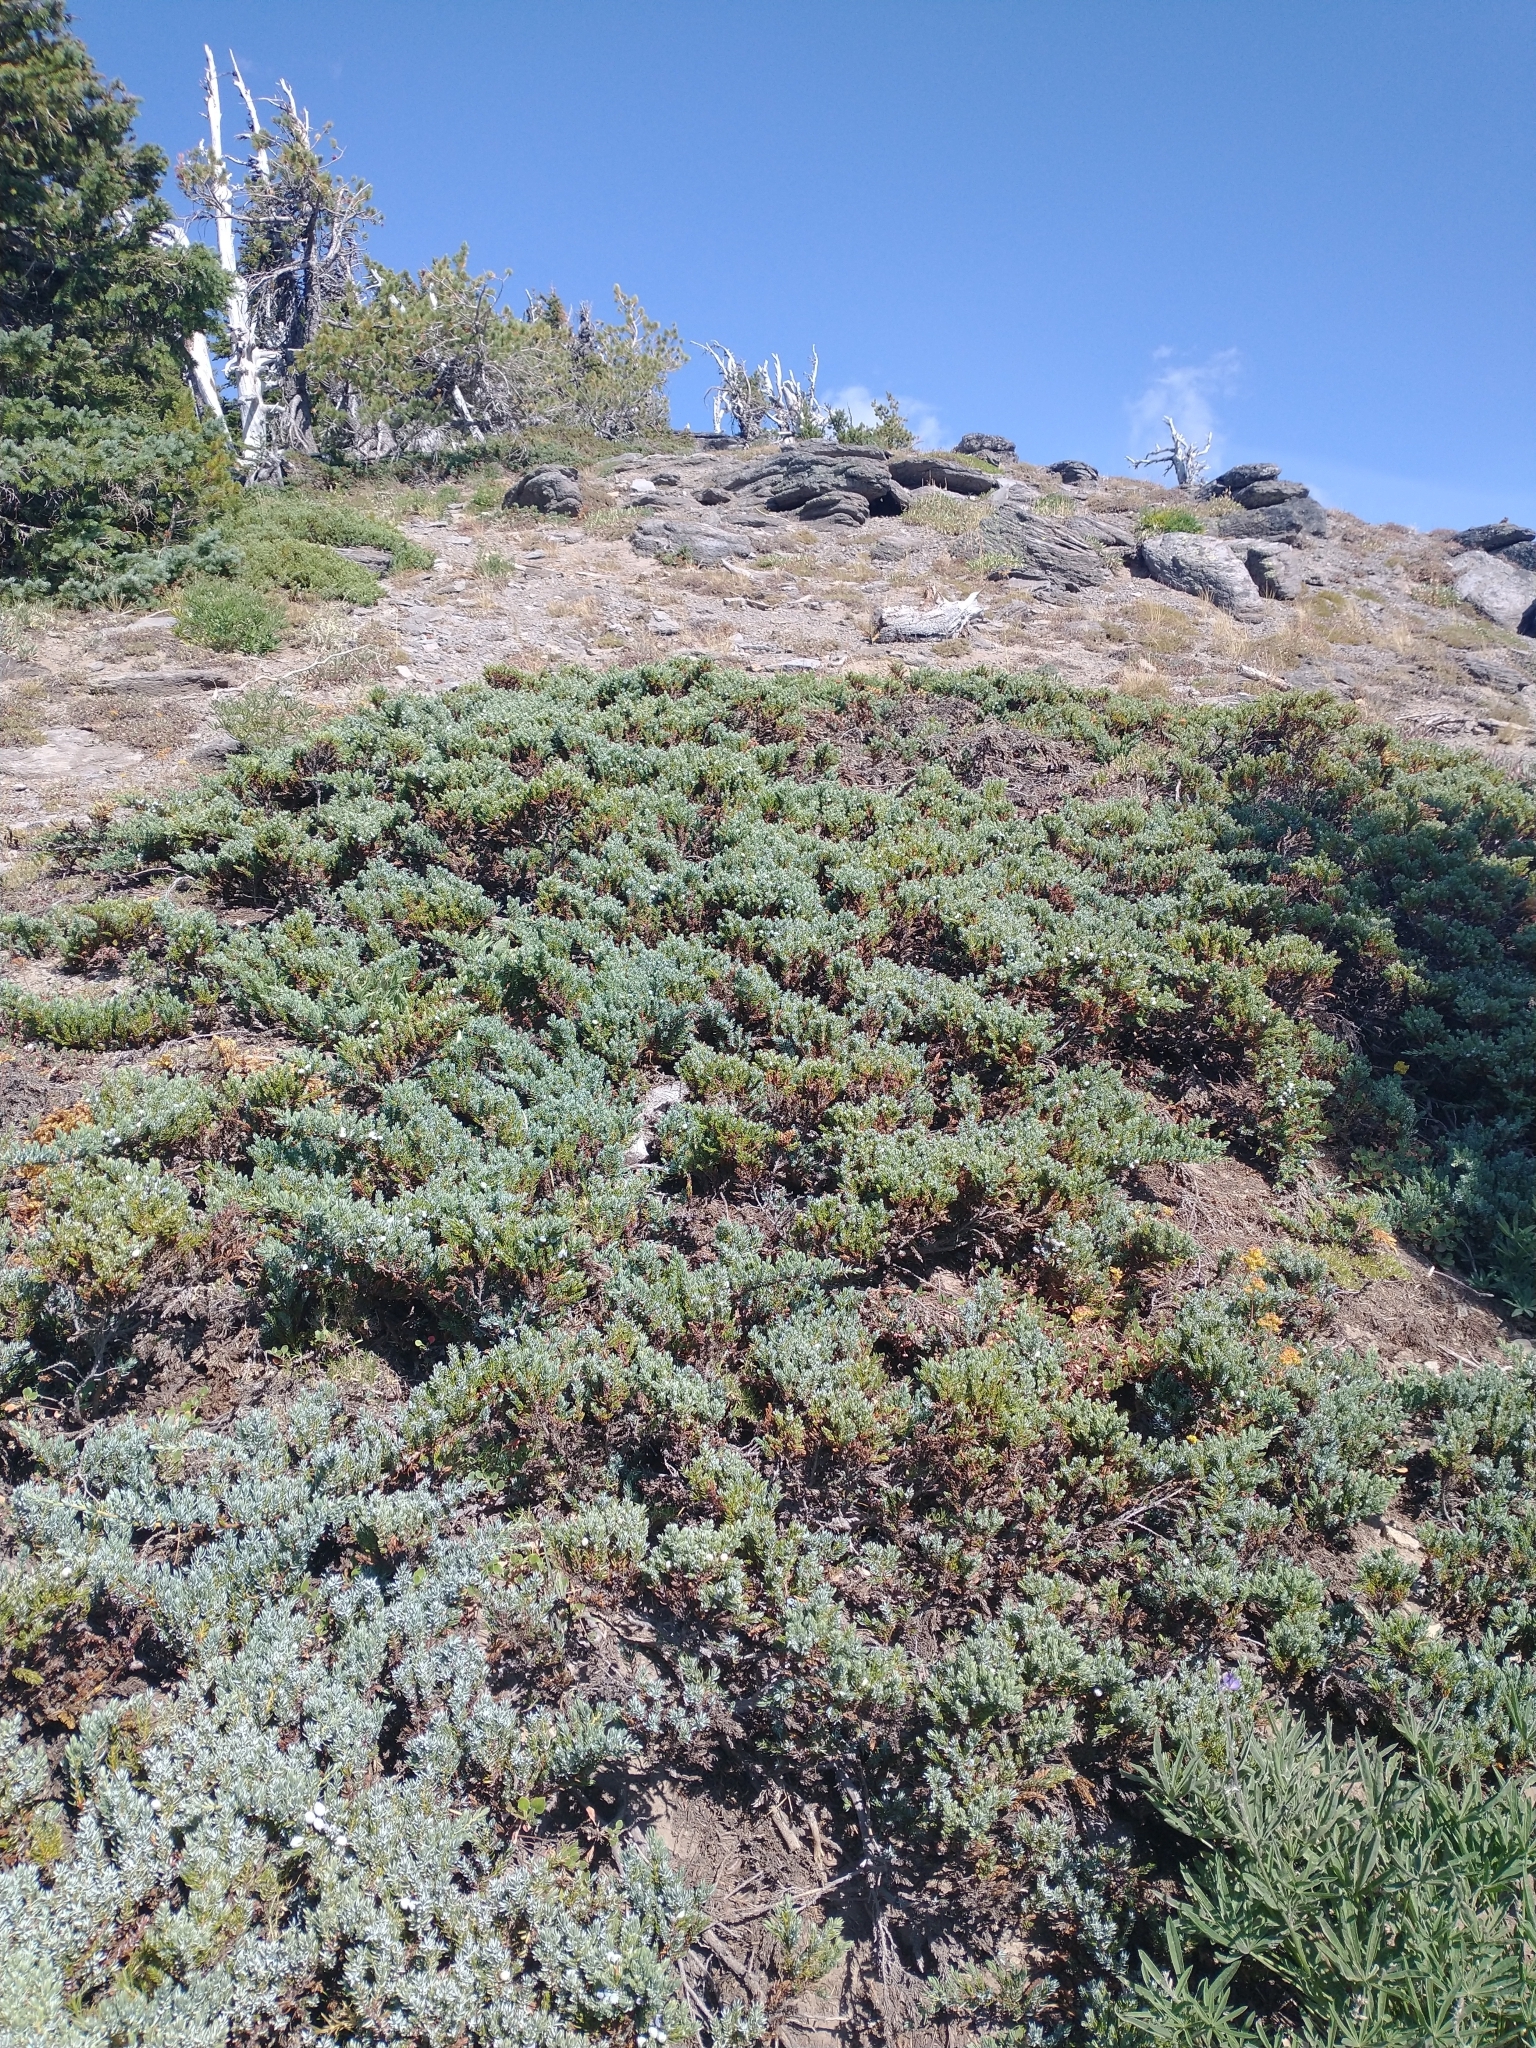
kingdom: Plantae
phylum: Tracheophyta
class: Pinopsida
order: Pinales
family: Cupressaceae
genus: Juniperus
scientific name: Juniperus communis
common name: Common juniper
